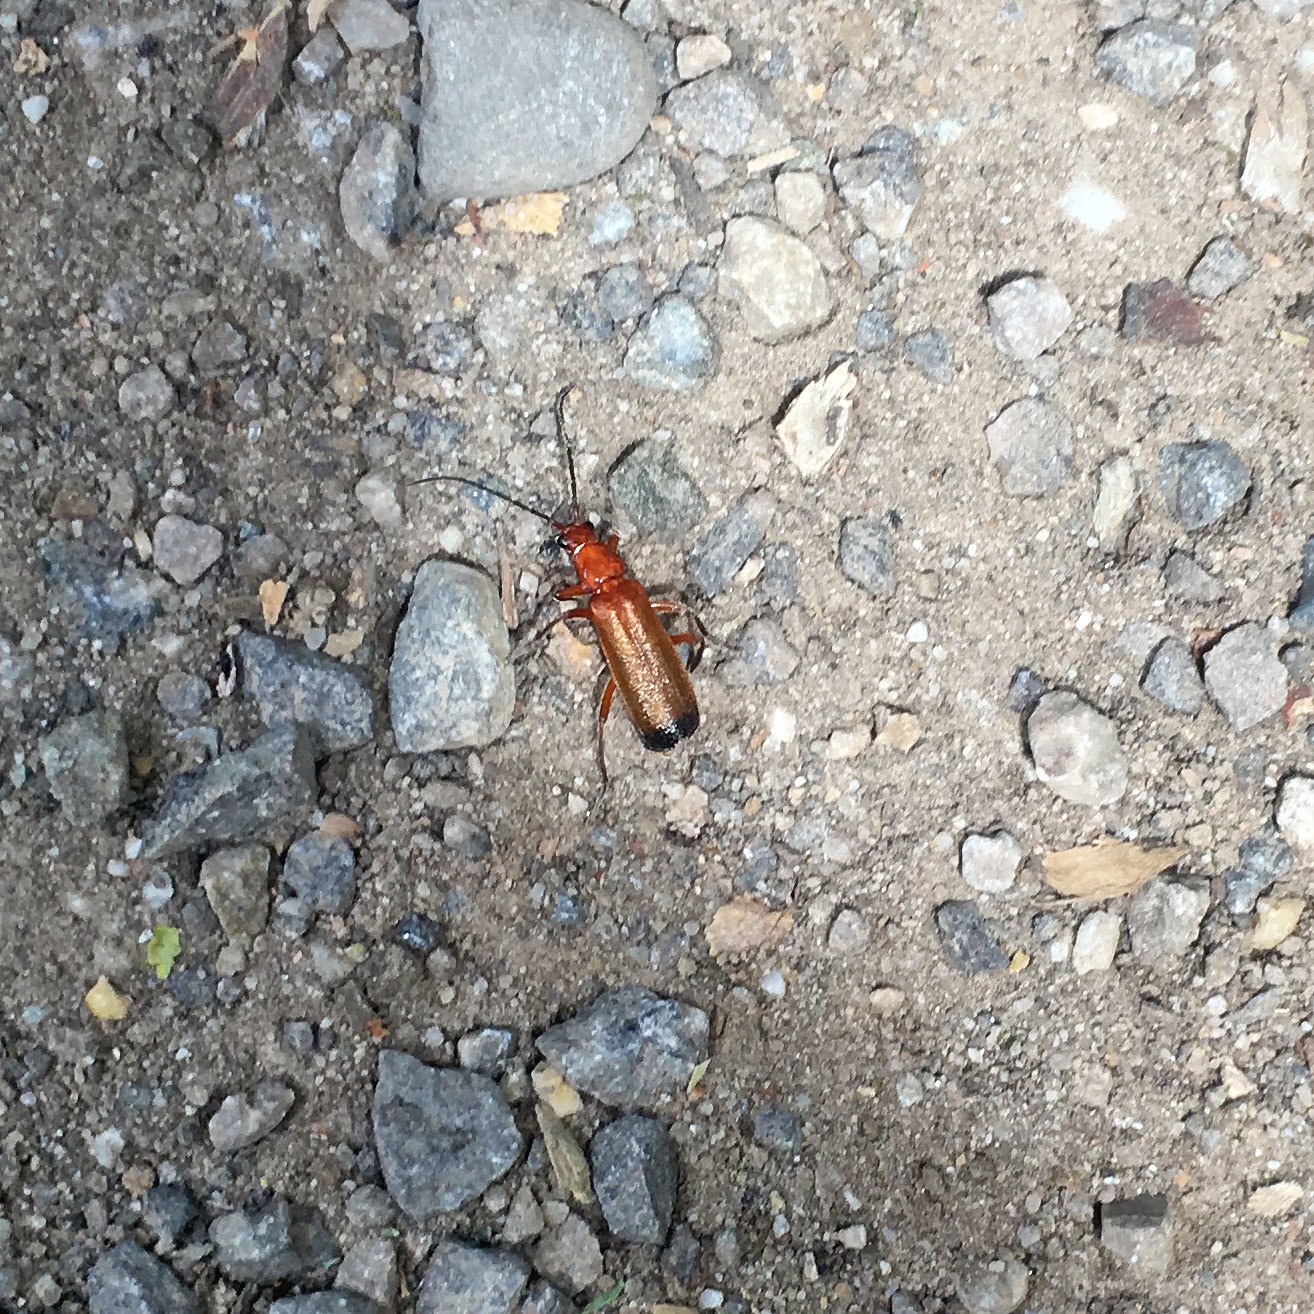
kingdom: Animalia
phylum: Arthropoda
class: Insecta
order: Coleoptera
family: Cantharidae
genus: Rhagonycha
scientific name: Rhagonycha fulva
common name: Common red soldier beetle
